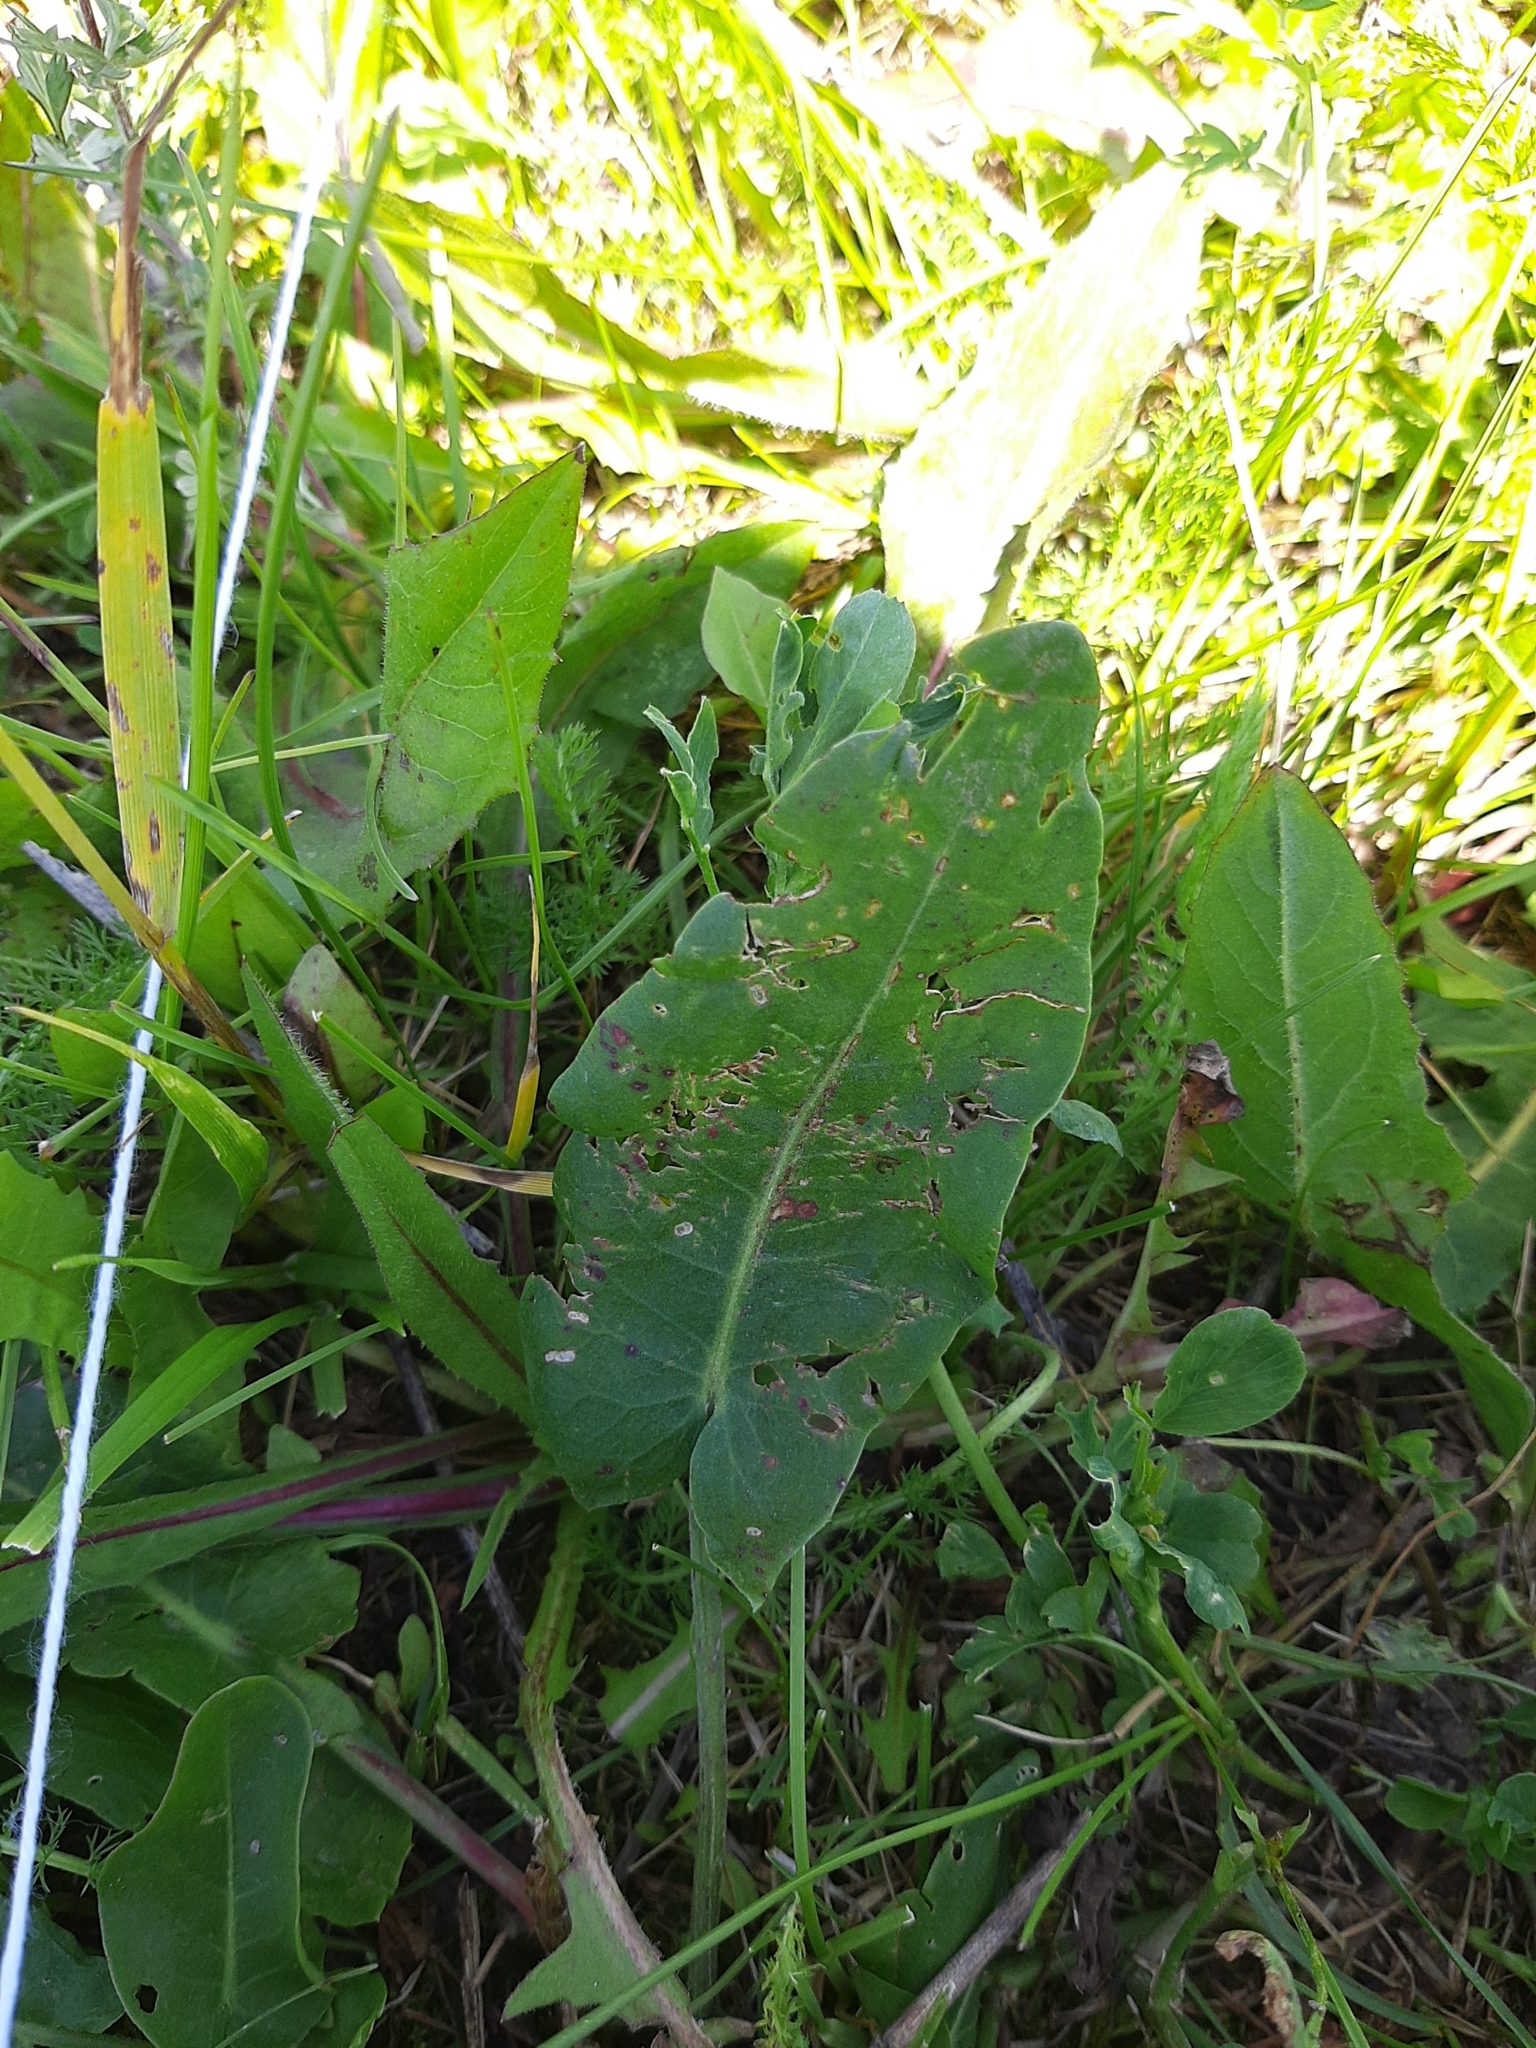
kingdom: Plantae
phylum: Tracheophyta
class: Magnoliopsida
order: Caryophyllales
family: Polygonaceae
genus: Rumex
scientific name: Rumex thyrsiflorus
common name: Garden sorrel
